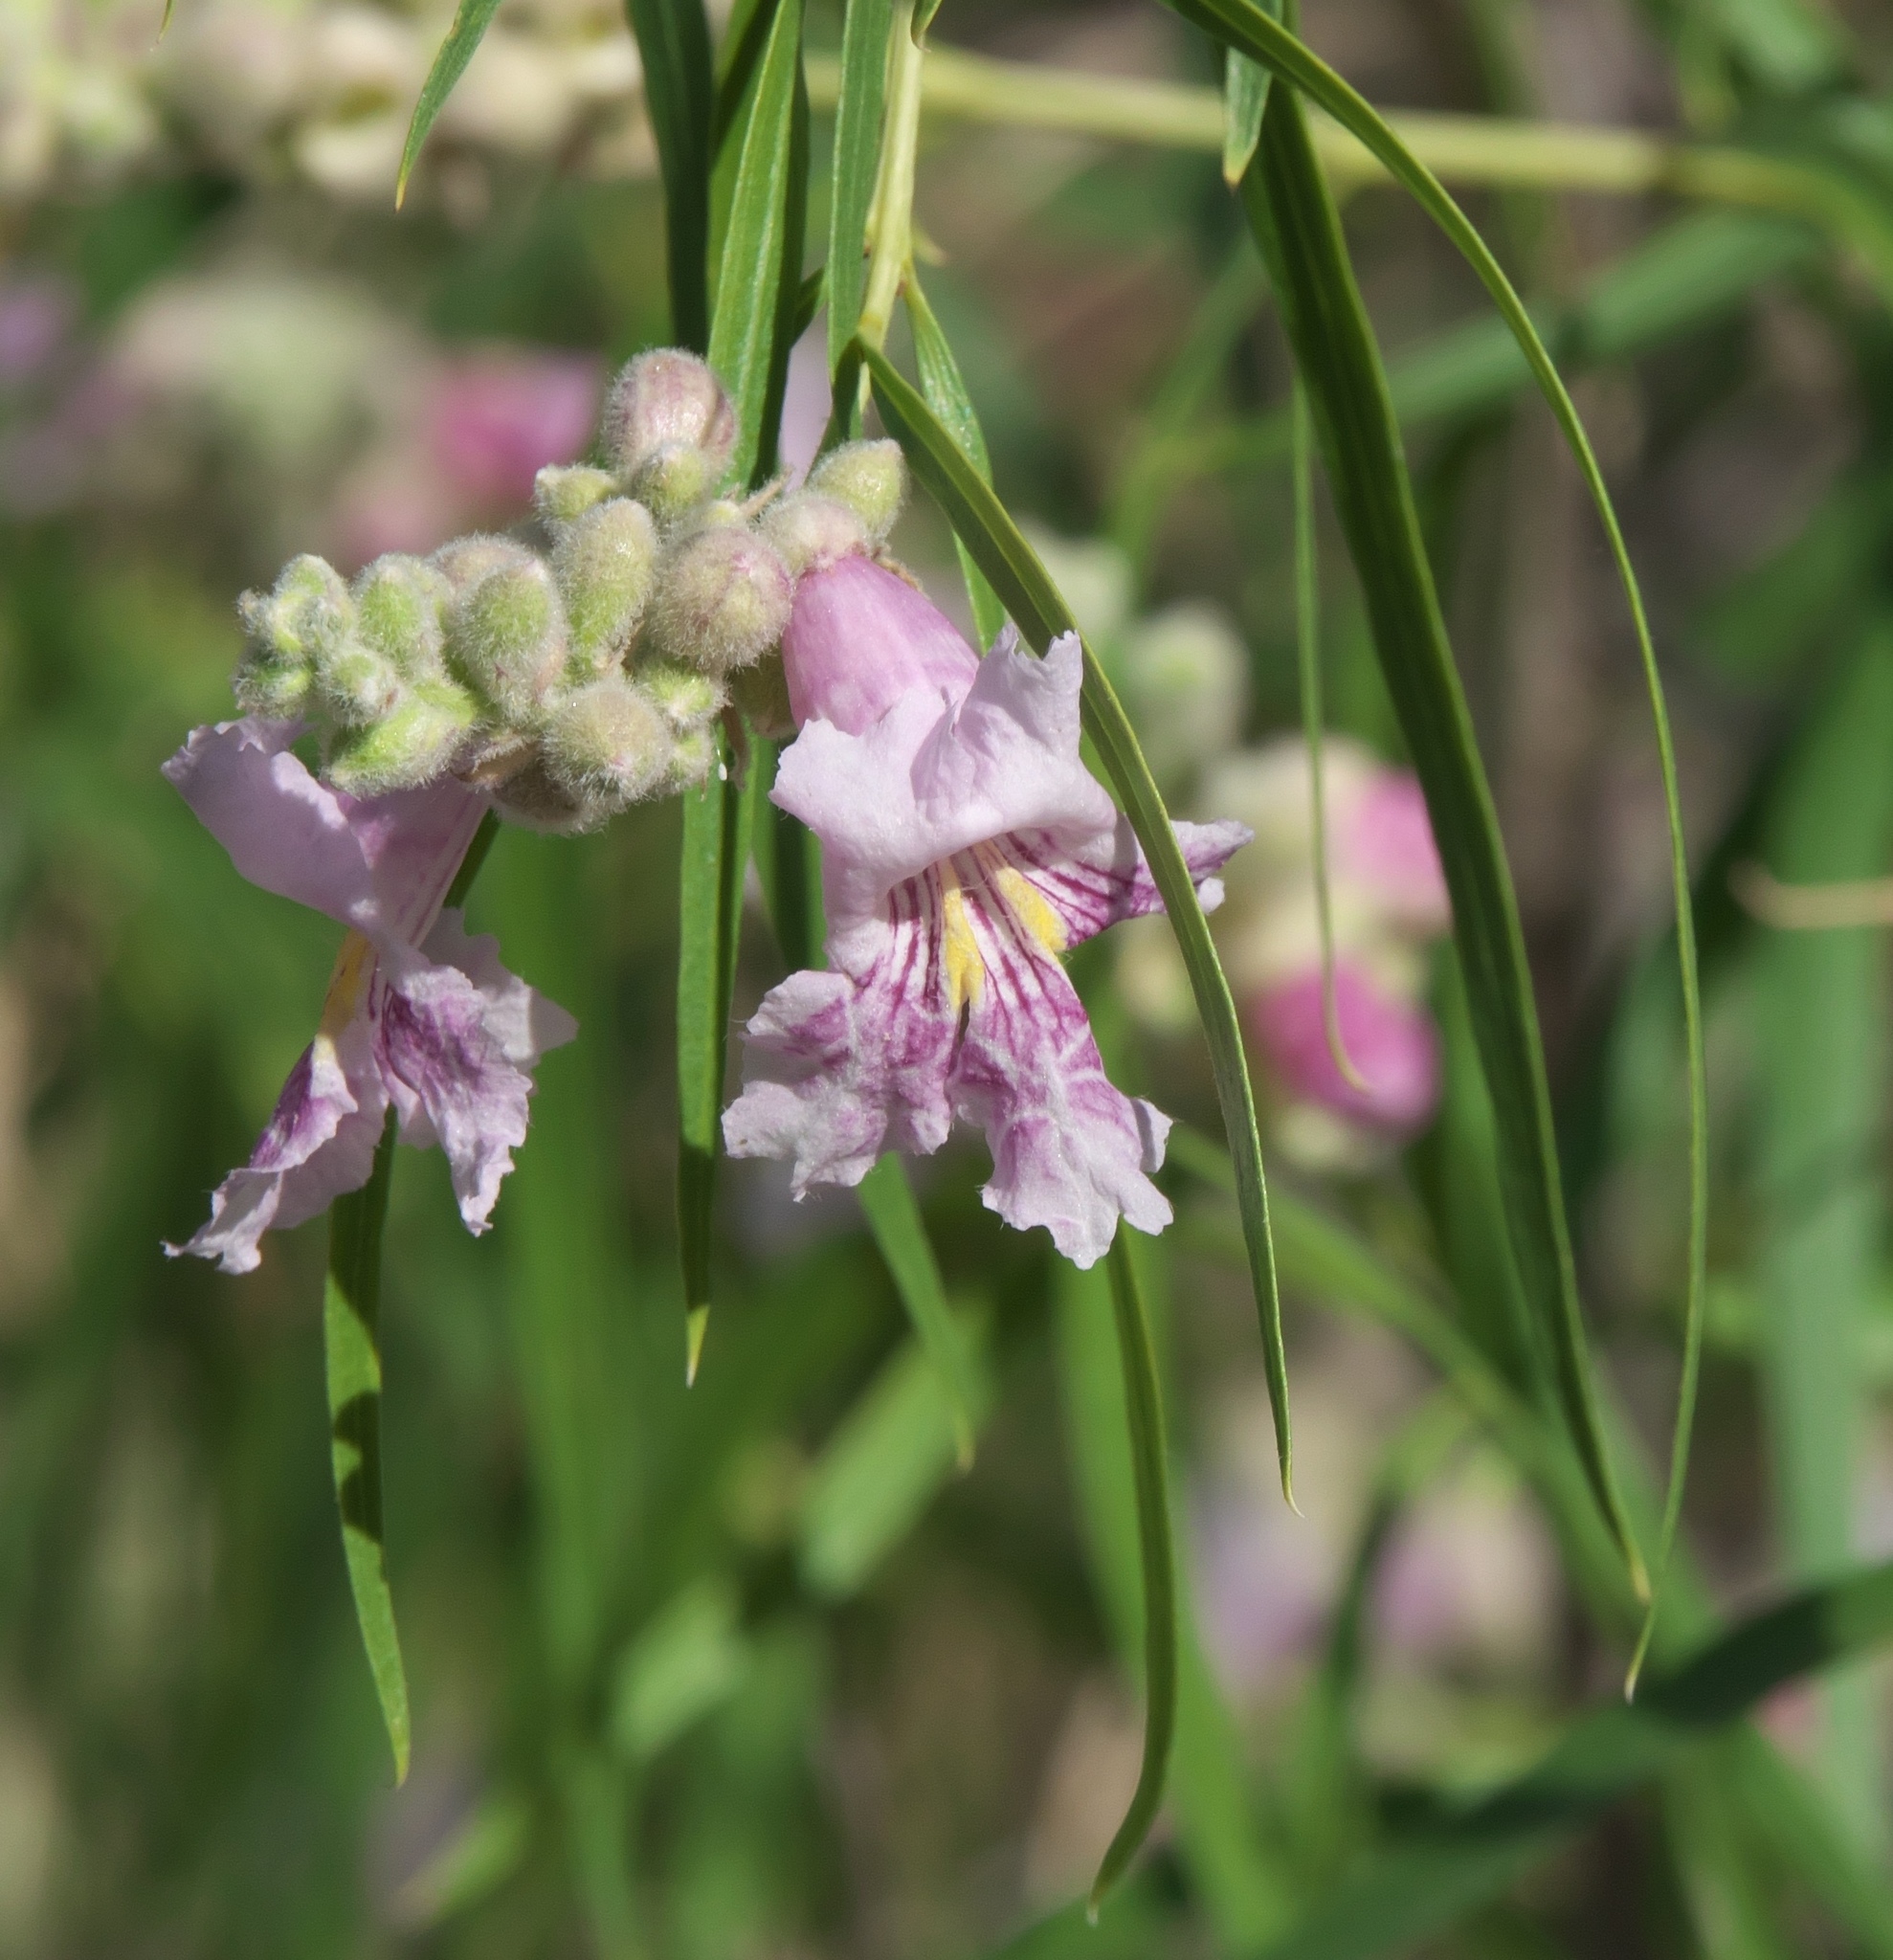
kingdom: Plantae
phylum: Tracheophyta
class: Magnoliopsida
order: Lamiales
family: Bignoniaceae
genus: Chilopsis
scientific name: Chilopsis linearis
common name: Desert-willow
